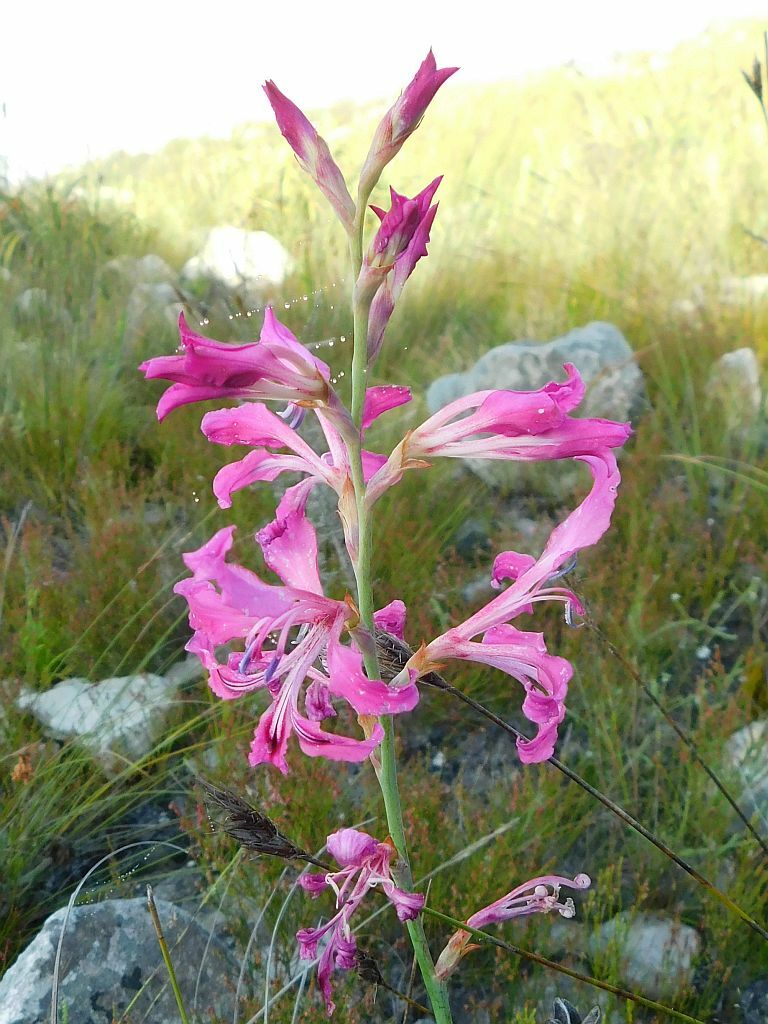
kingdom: Plantae
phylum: Tracheophyta
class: Liliopsida
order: Asparagales
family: Iridaceae
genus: Tritoniopsis
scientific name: Tritoniopsis lata
